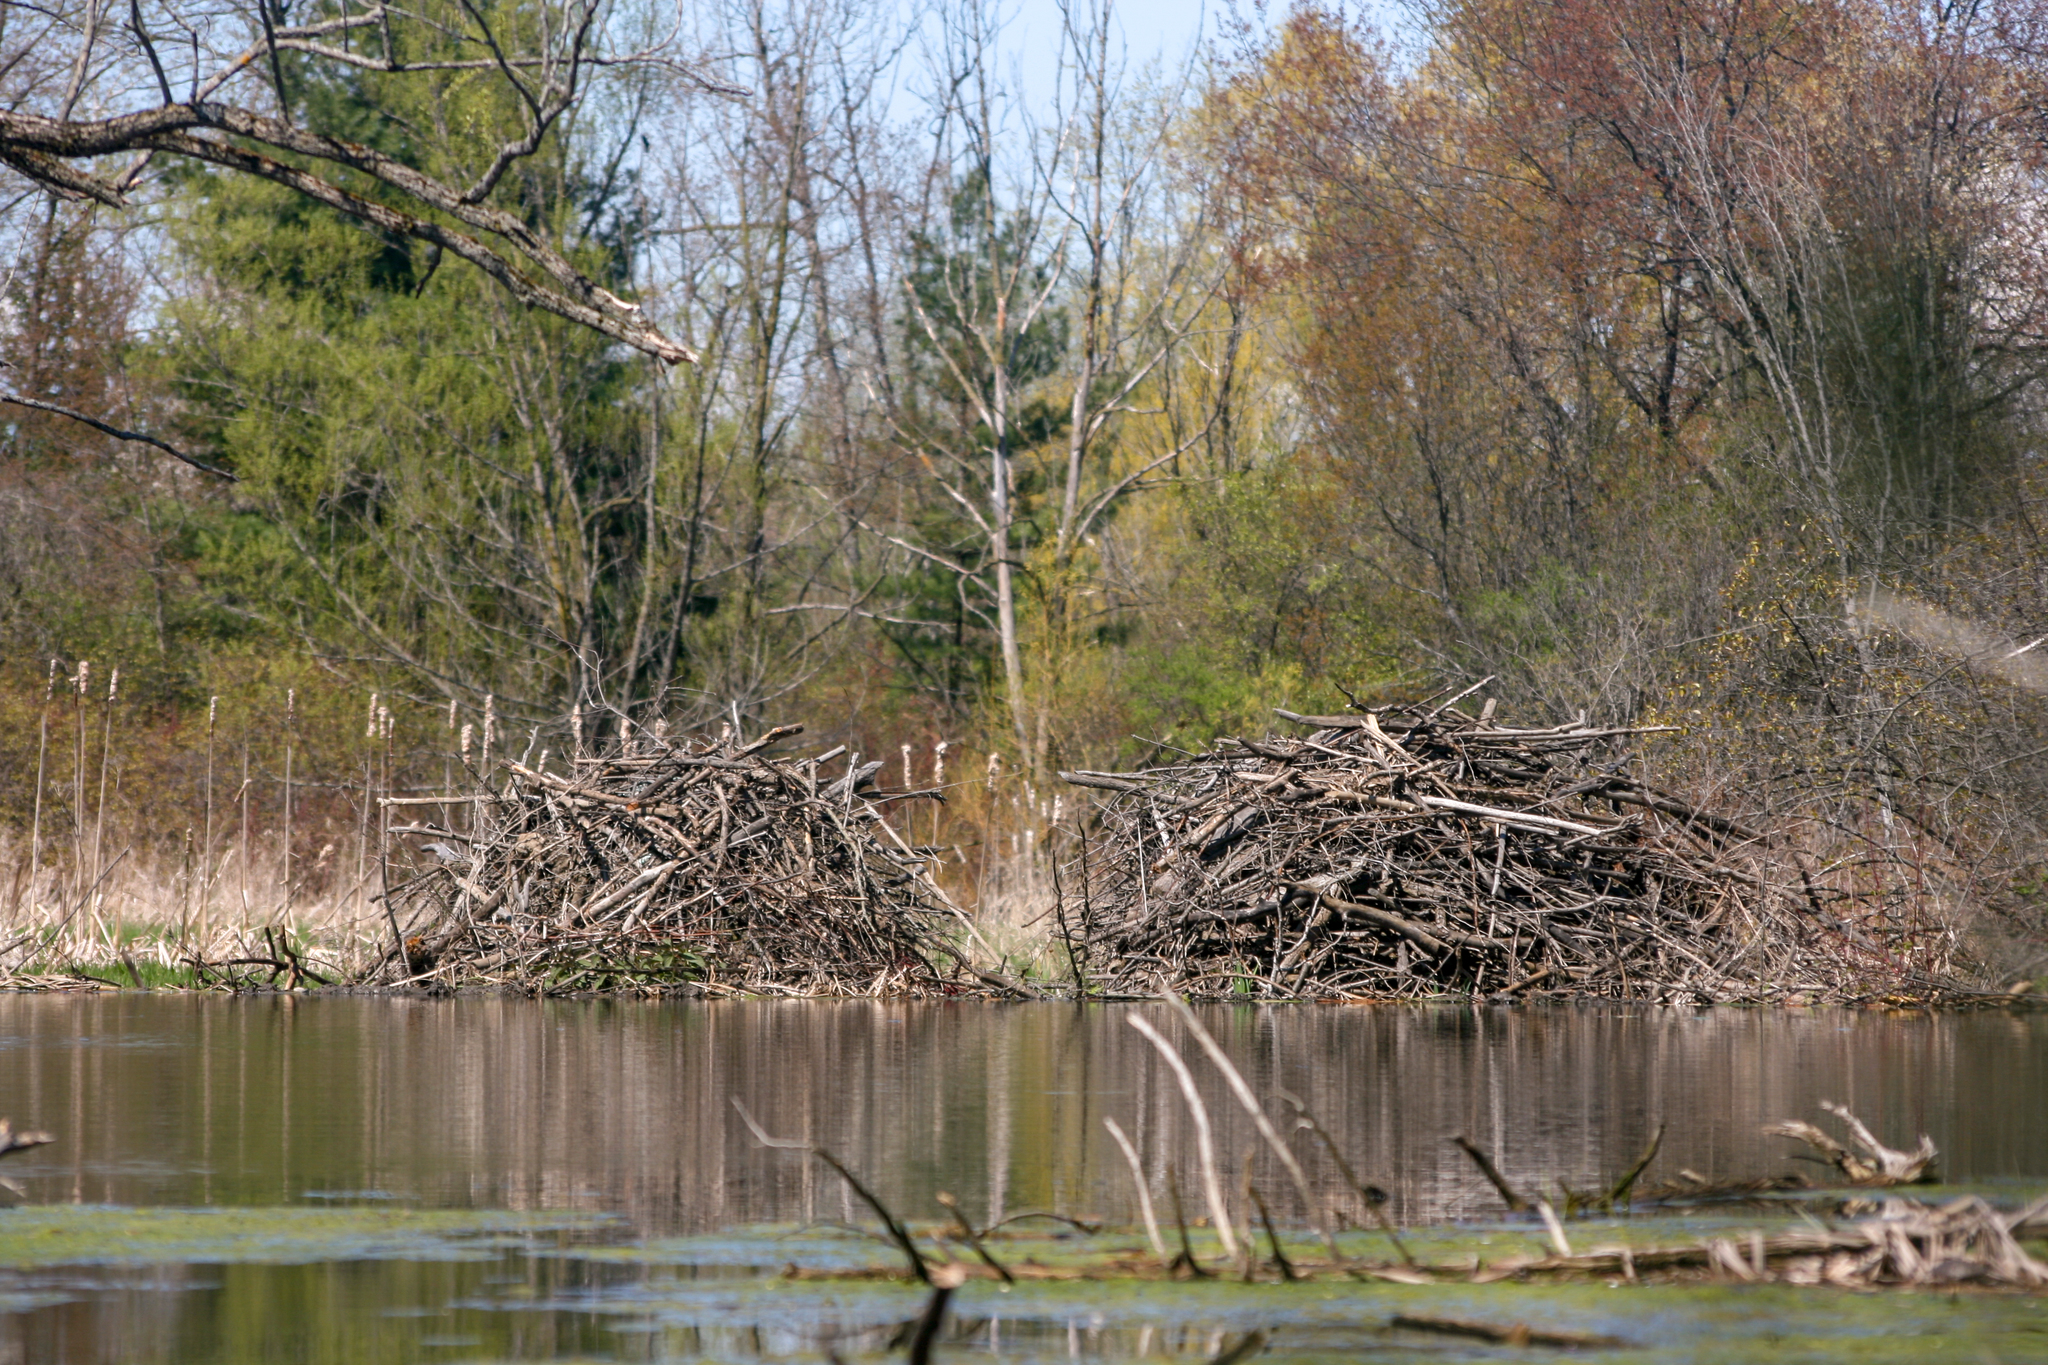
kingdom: Animalia
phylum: Chordata
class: Mammalia
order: Rodentia
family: Castoridae
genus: Castor
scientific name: Castor canadensis
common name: American beaver
